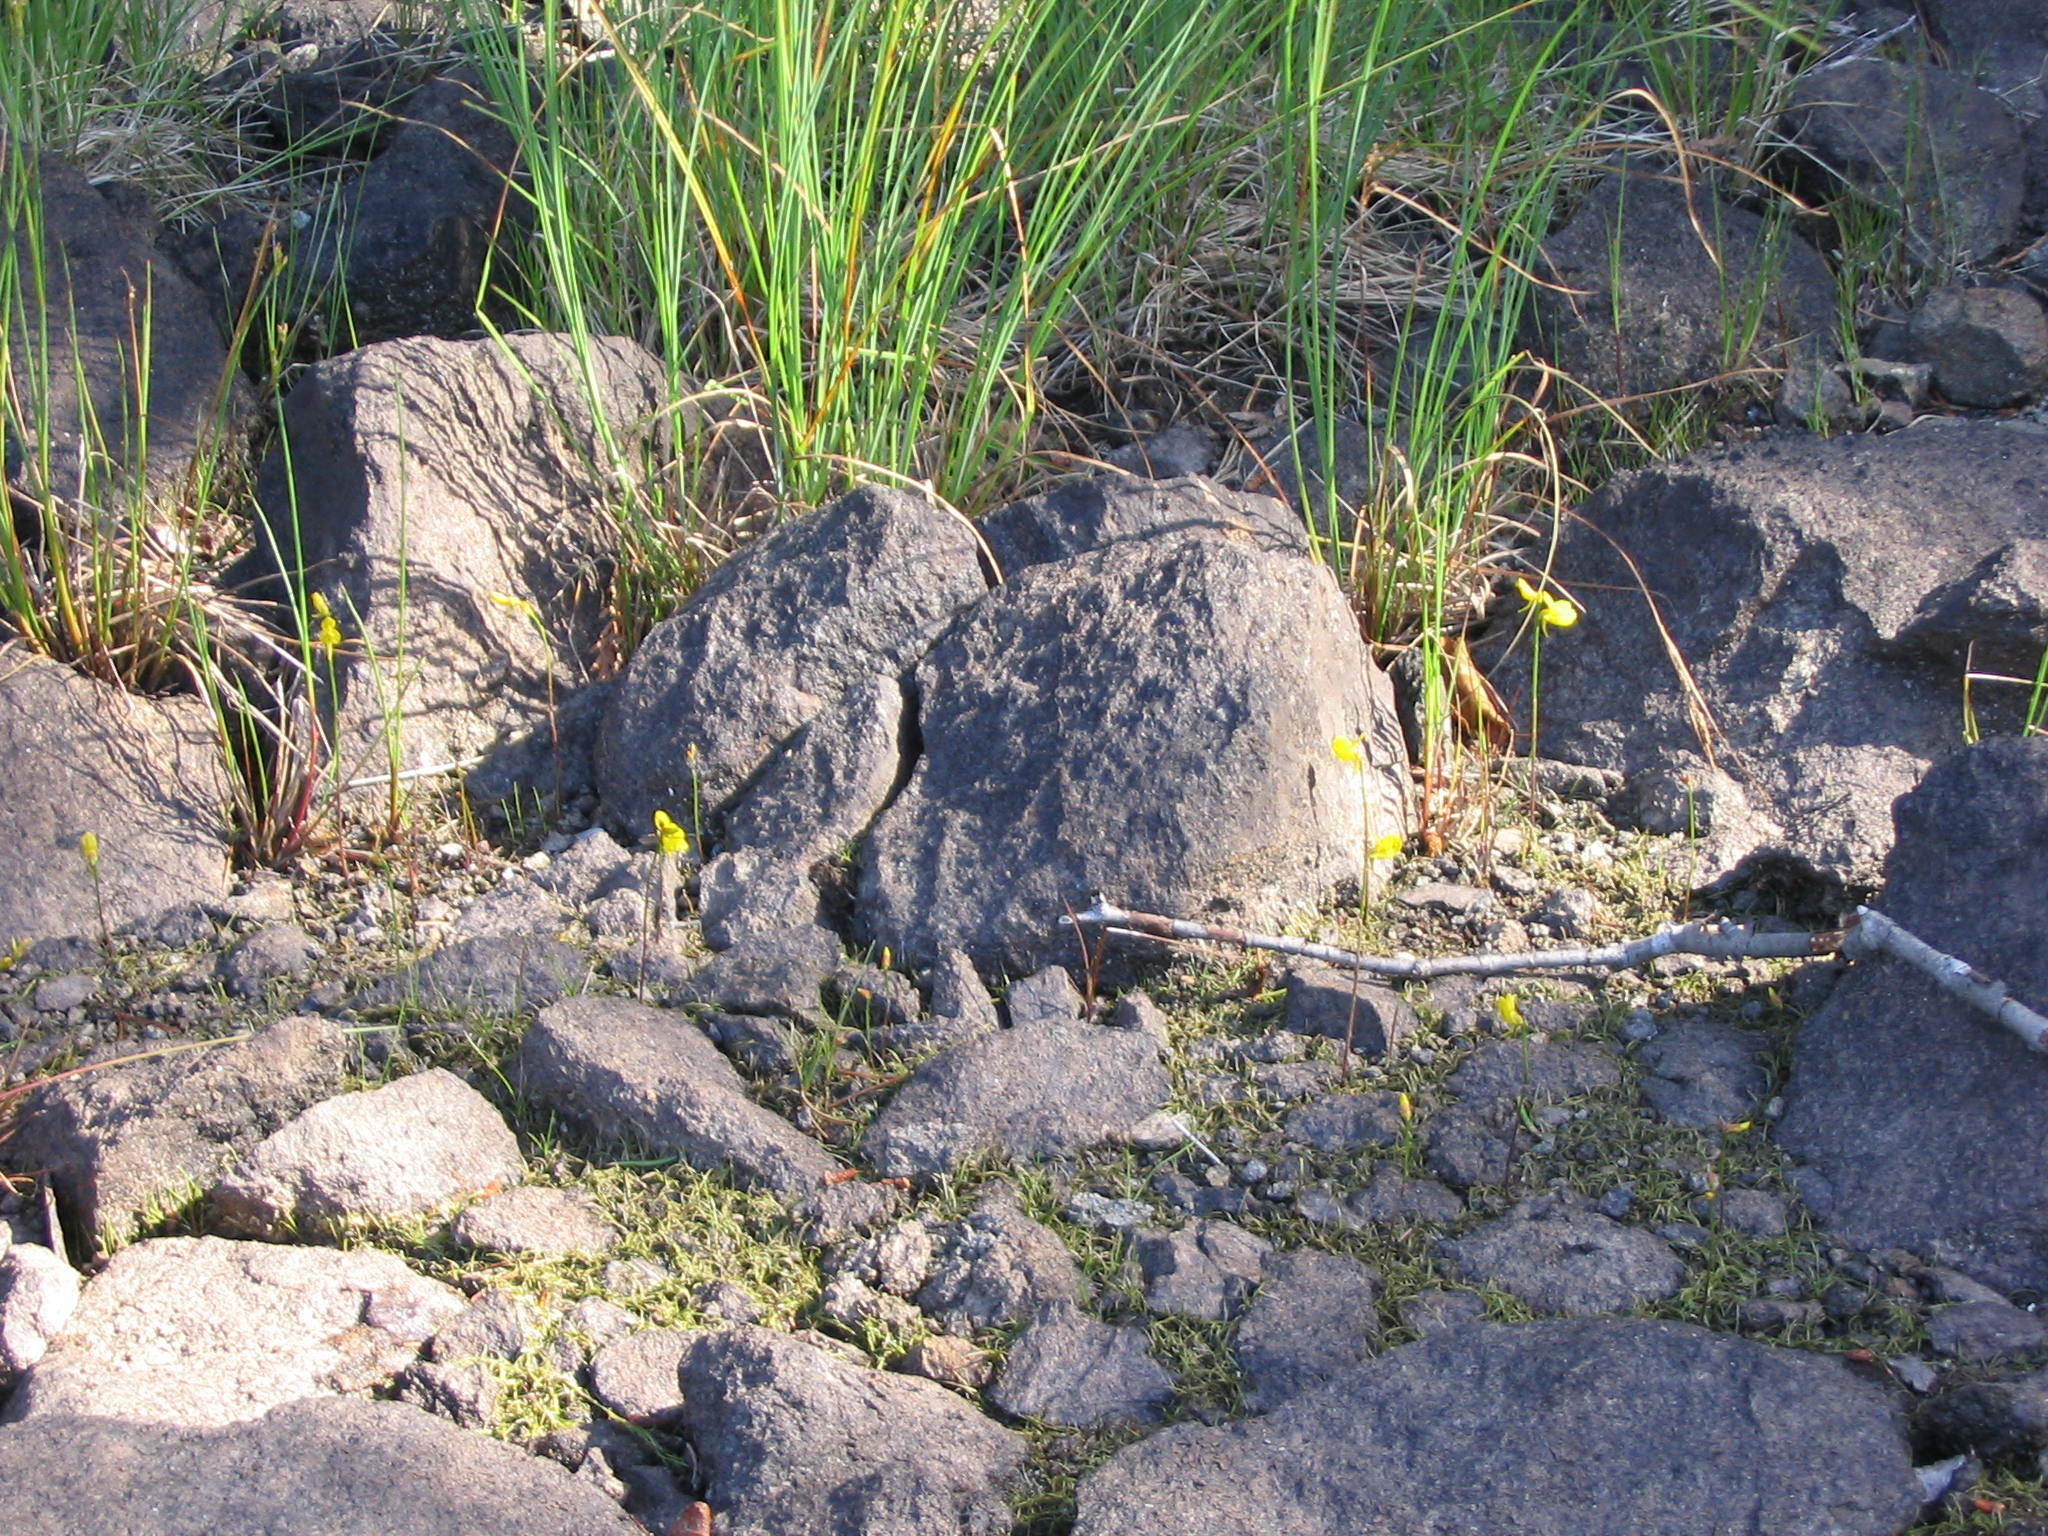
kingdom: Plantae
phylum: Tracheophyta
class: Magnoliopsida
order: Lamiales
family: Lentibulariaceae
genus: Utricularia
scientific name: Utricularia cornuta
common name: Horned bladderwort
